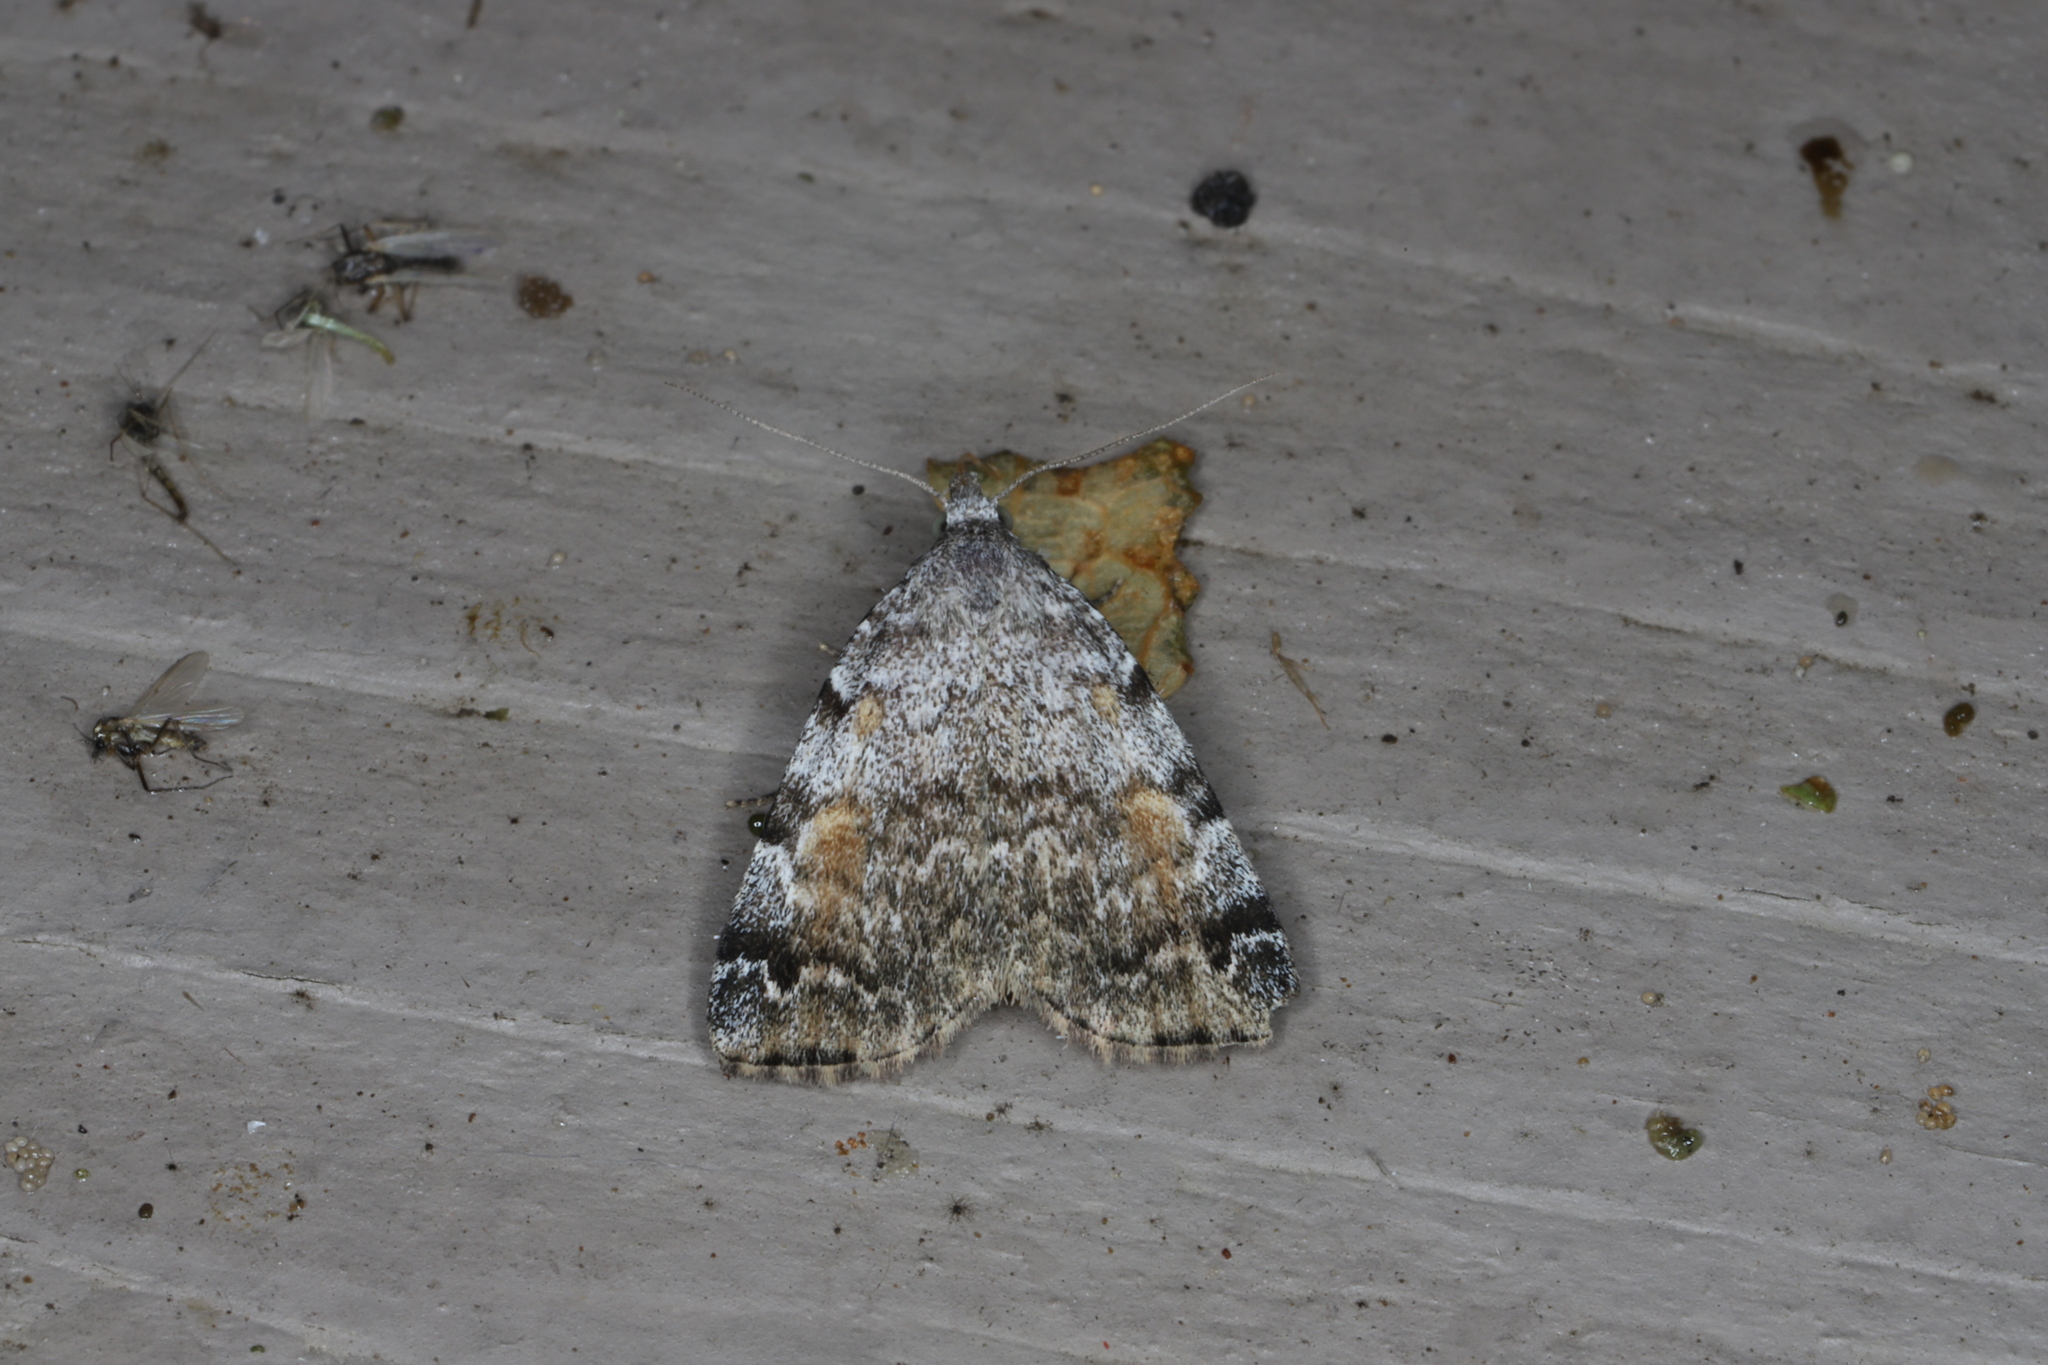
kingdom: Animalia
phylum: Arthropoda
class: Insecta
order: Lepidoptera
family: Erebidae
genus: Idia
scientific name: Idia americalis
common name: American idia moth
